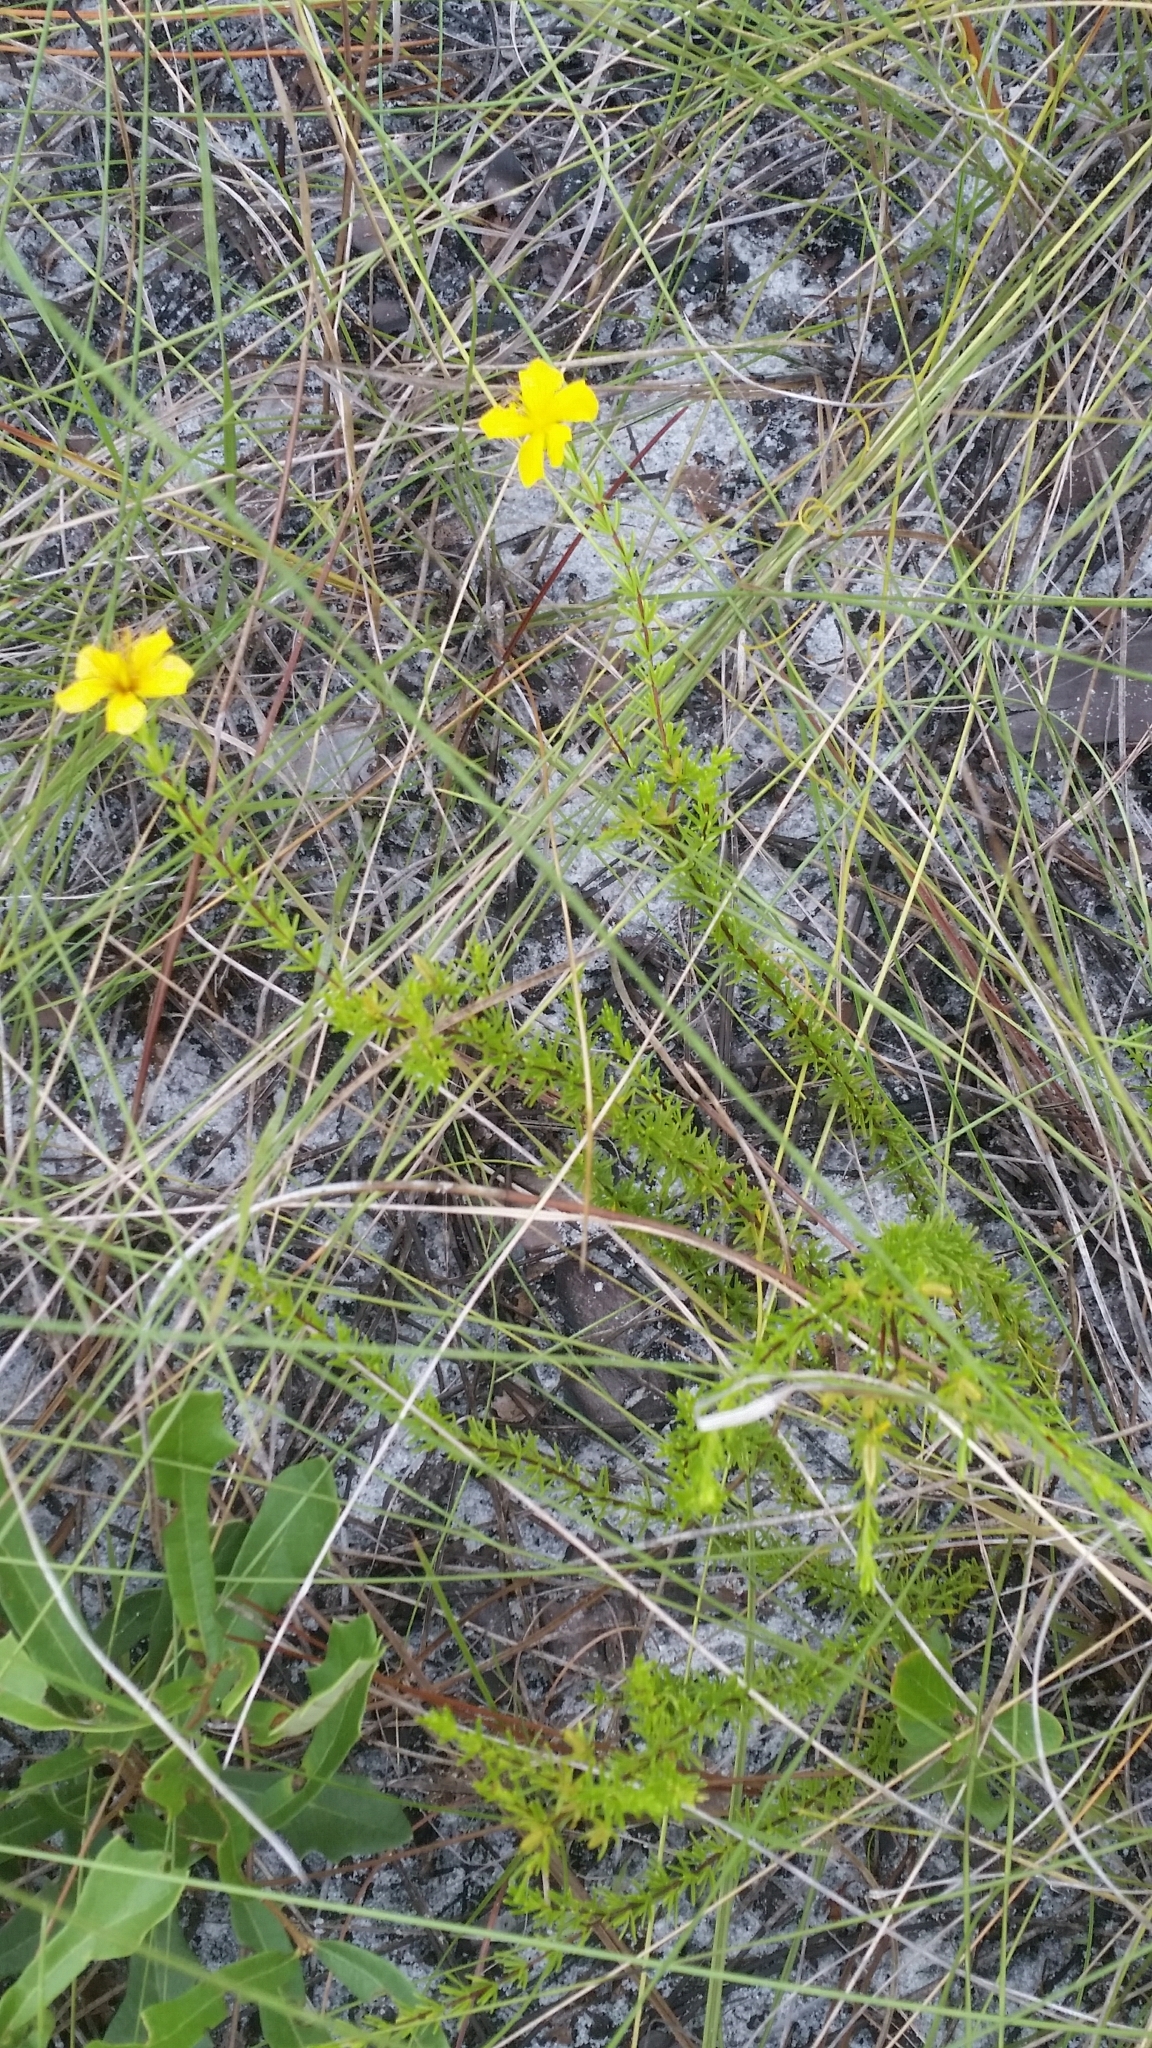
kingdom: Plantae
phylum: Tracheophyta
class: Magnoliopsida
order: Malpighiales
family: Hypericaceae
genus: Hypericum
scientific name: Hypericum tenuifolium
